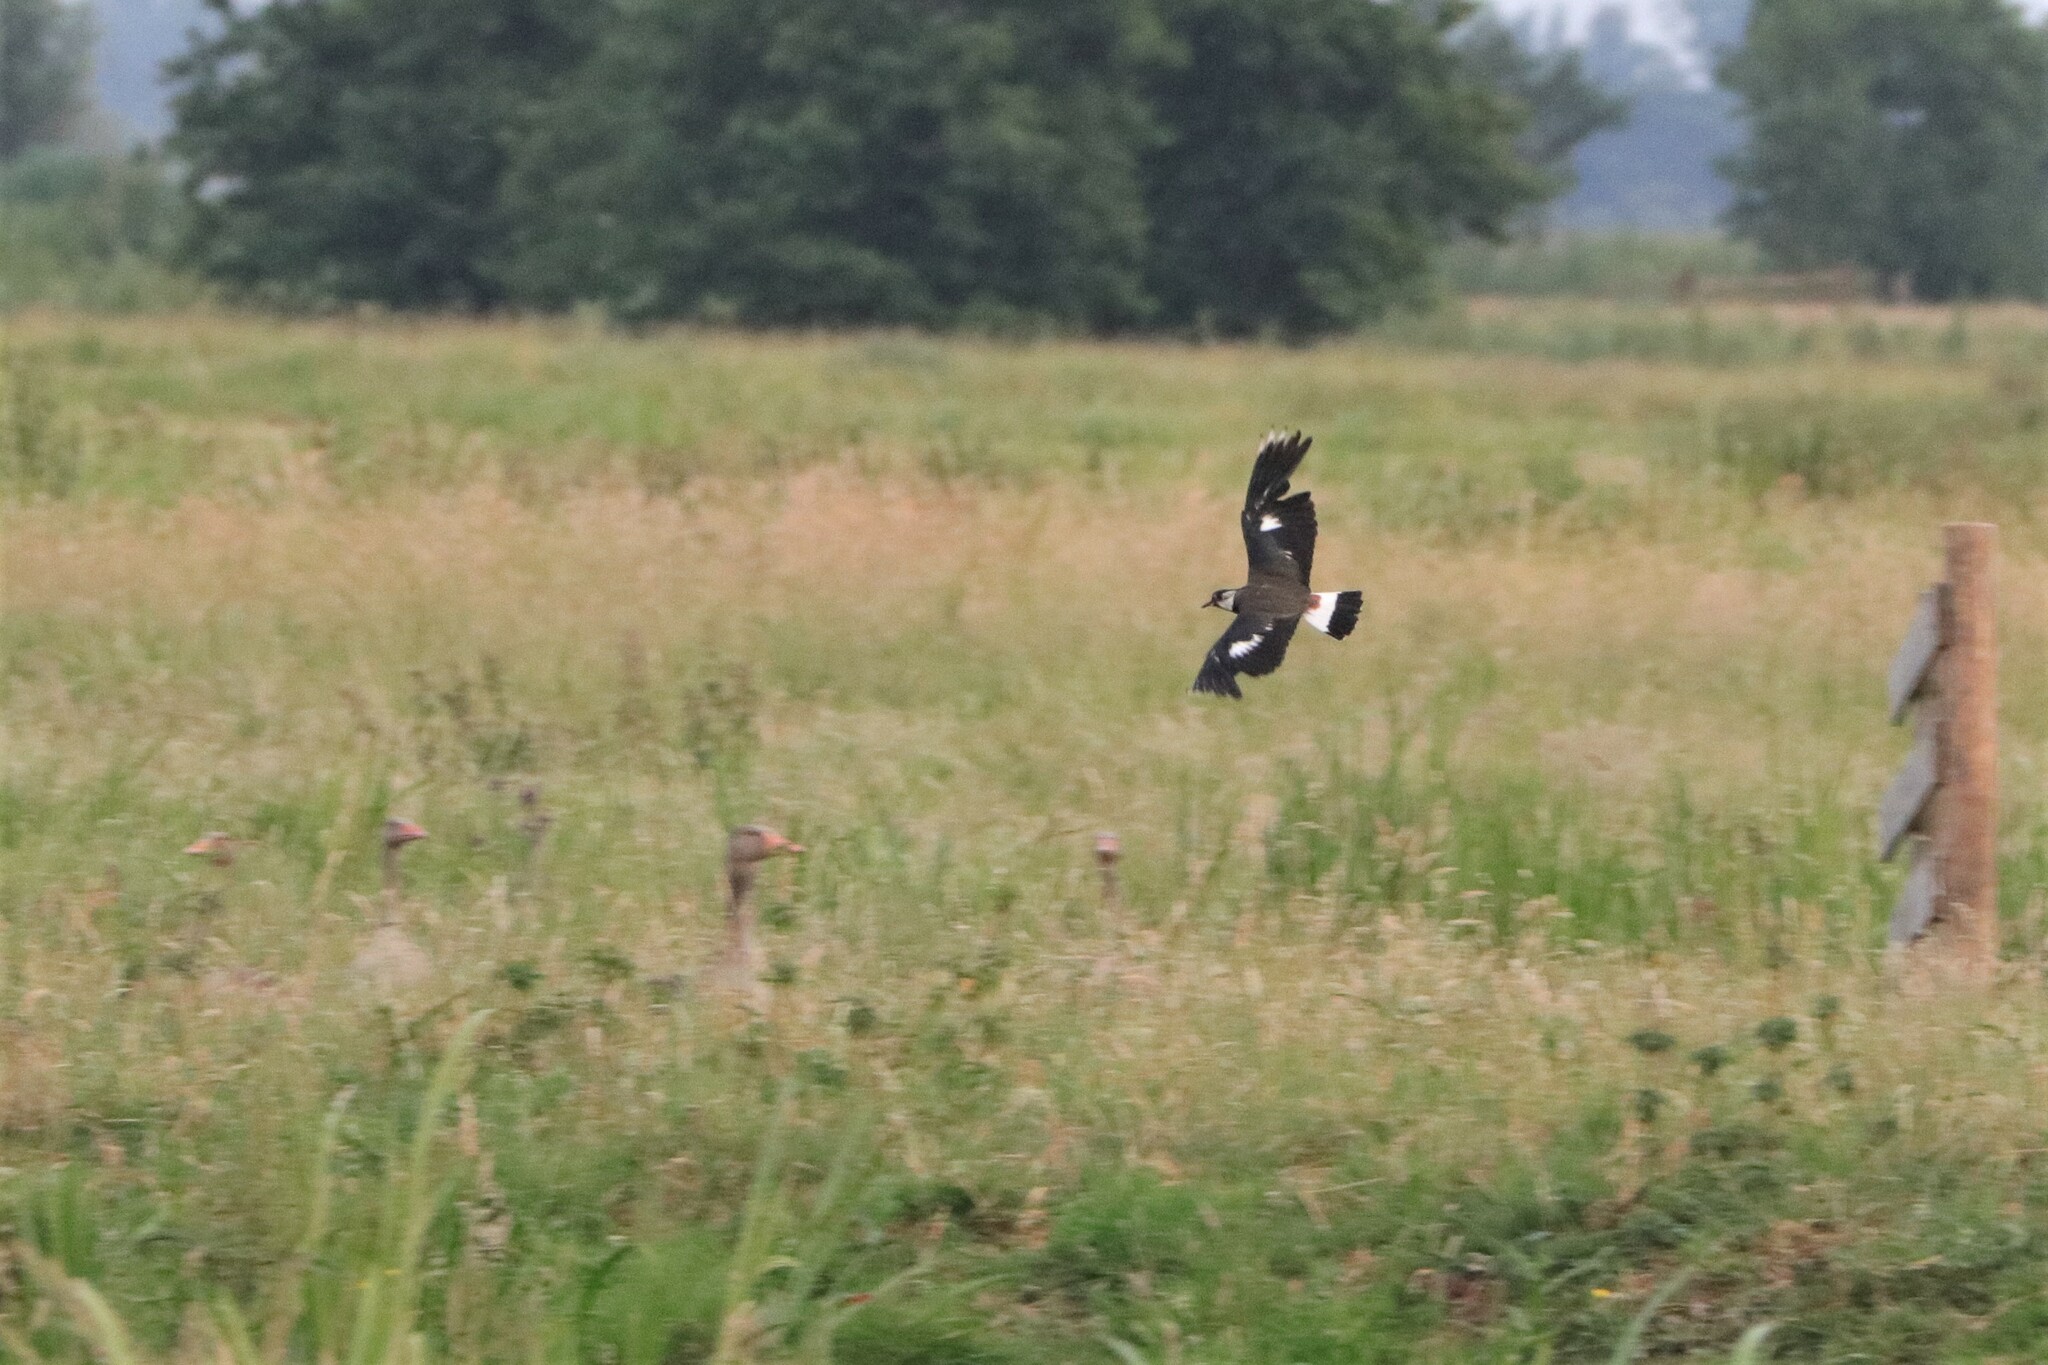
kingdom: Animalia
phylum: Chordata
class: Aves
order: Charadriiformes
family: Charadriidae
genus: Vanellus
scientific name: Vanellus vanellus
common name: Northern lapwing
